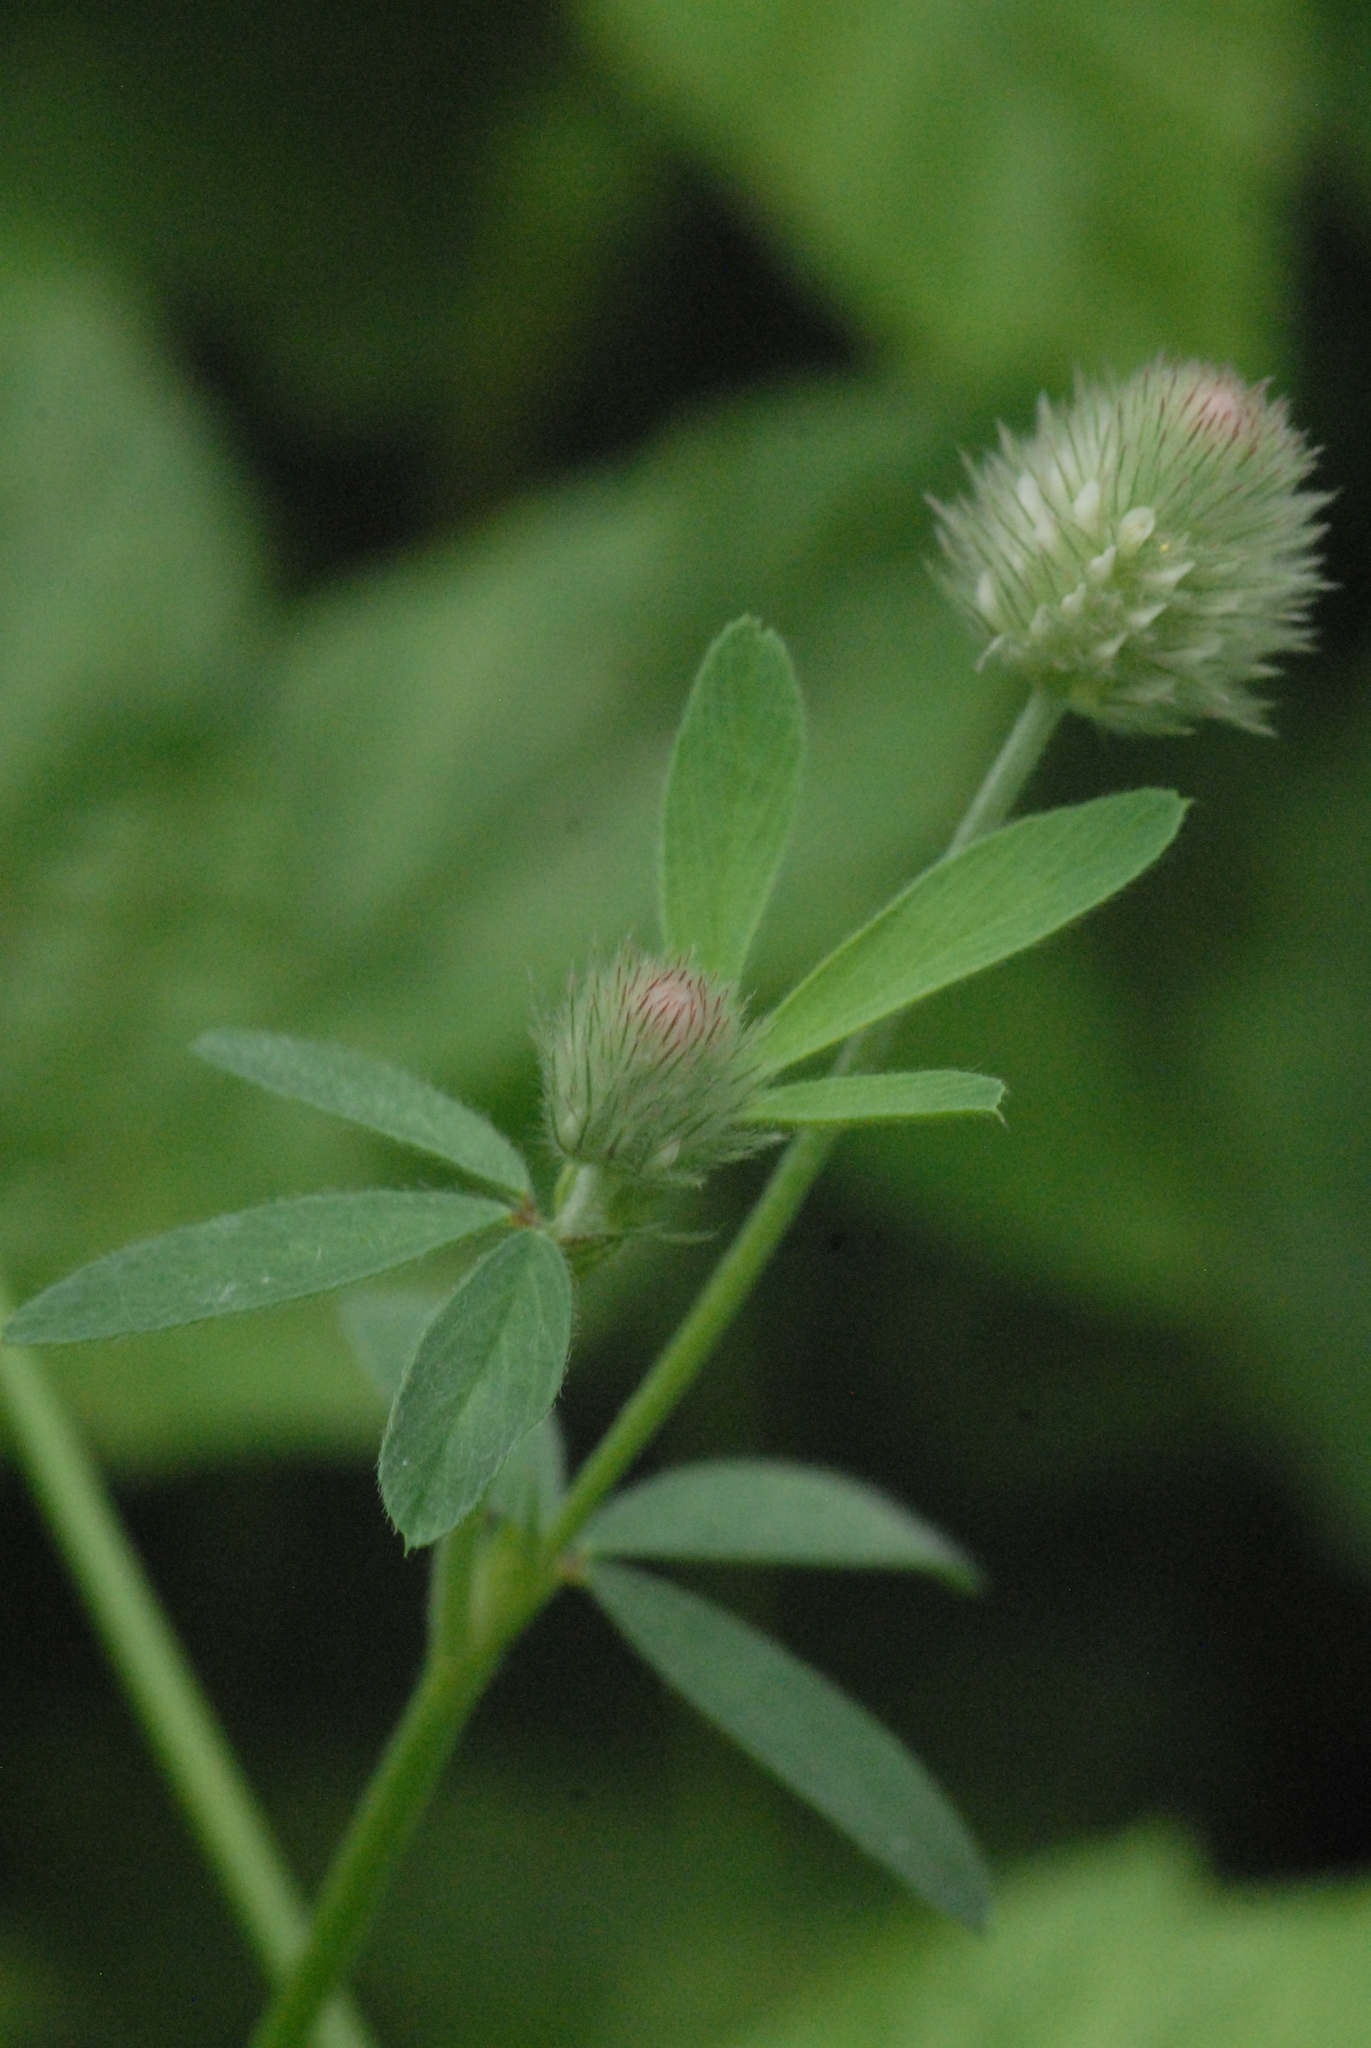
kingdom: Plantae
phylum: Tracheophyta
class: Magnoliopsida
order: Fabales
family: Fabaceae
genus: Trifolium
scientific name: Trifolium arvense
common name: Hare's-foot clover
